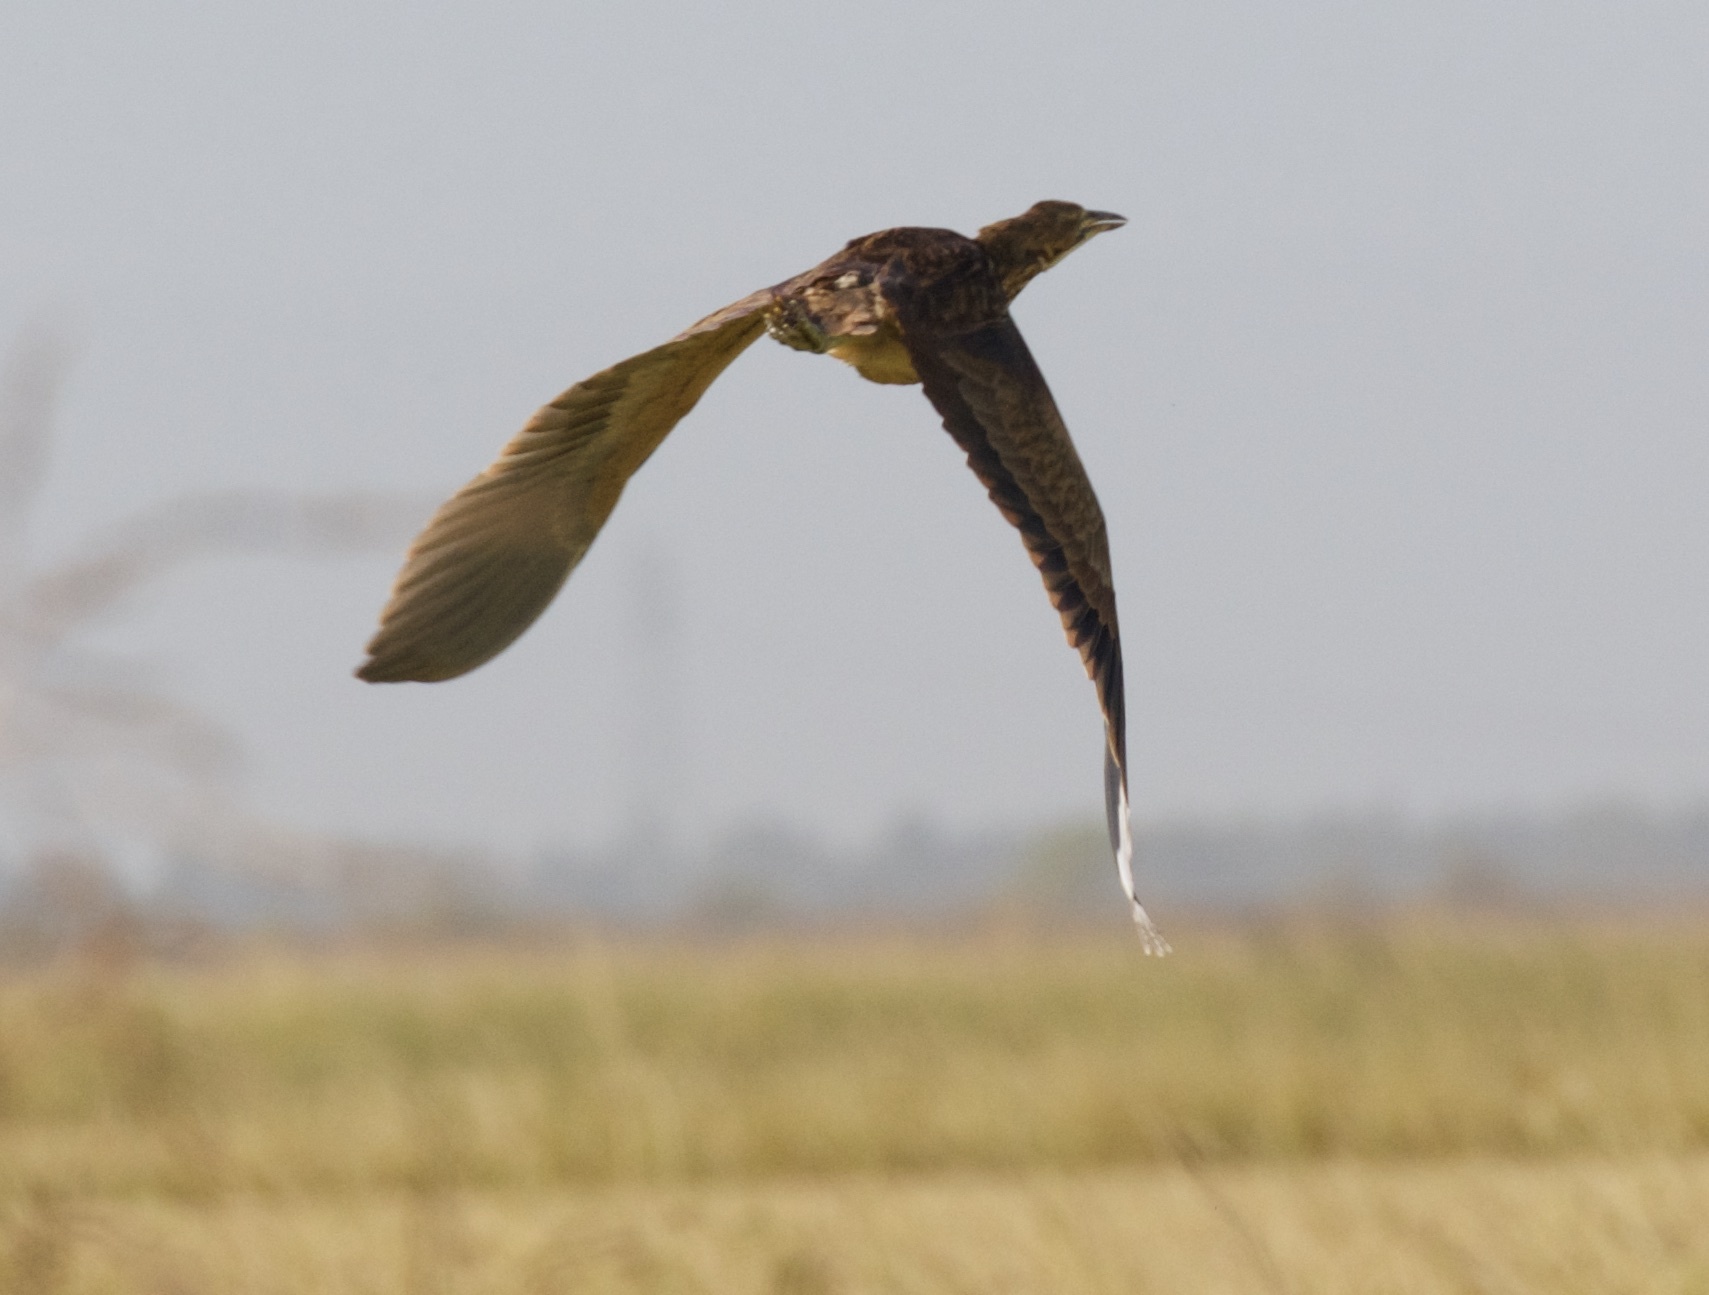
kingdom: Animalia
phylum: Chordata
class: Aves
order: Pelecaniformes
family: Ardeidae
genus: Botaurus
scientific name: Botaurus lentiginosus
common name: American bittern
